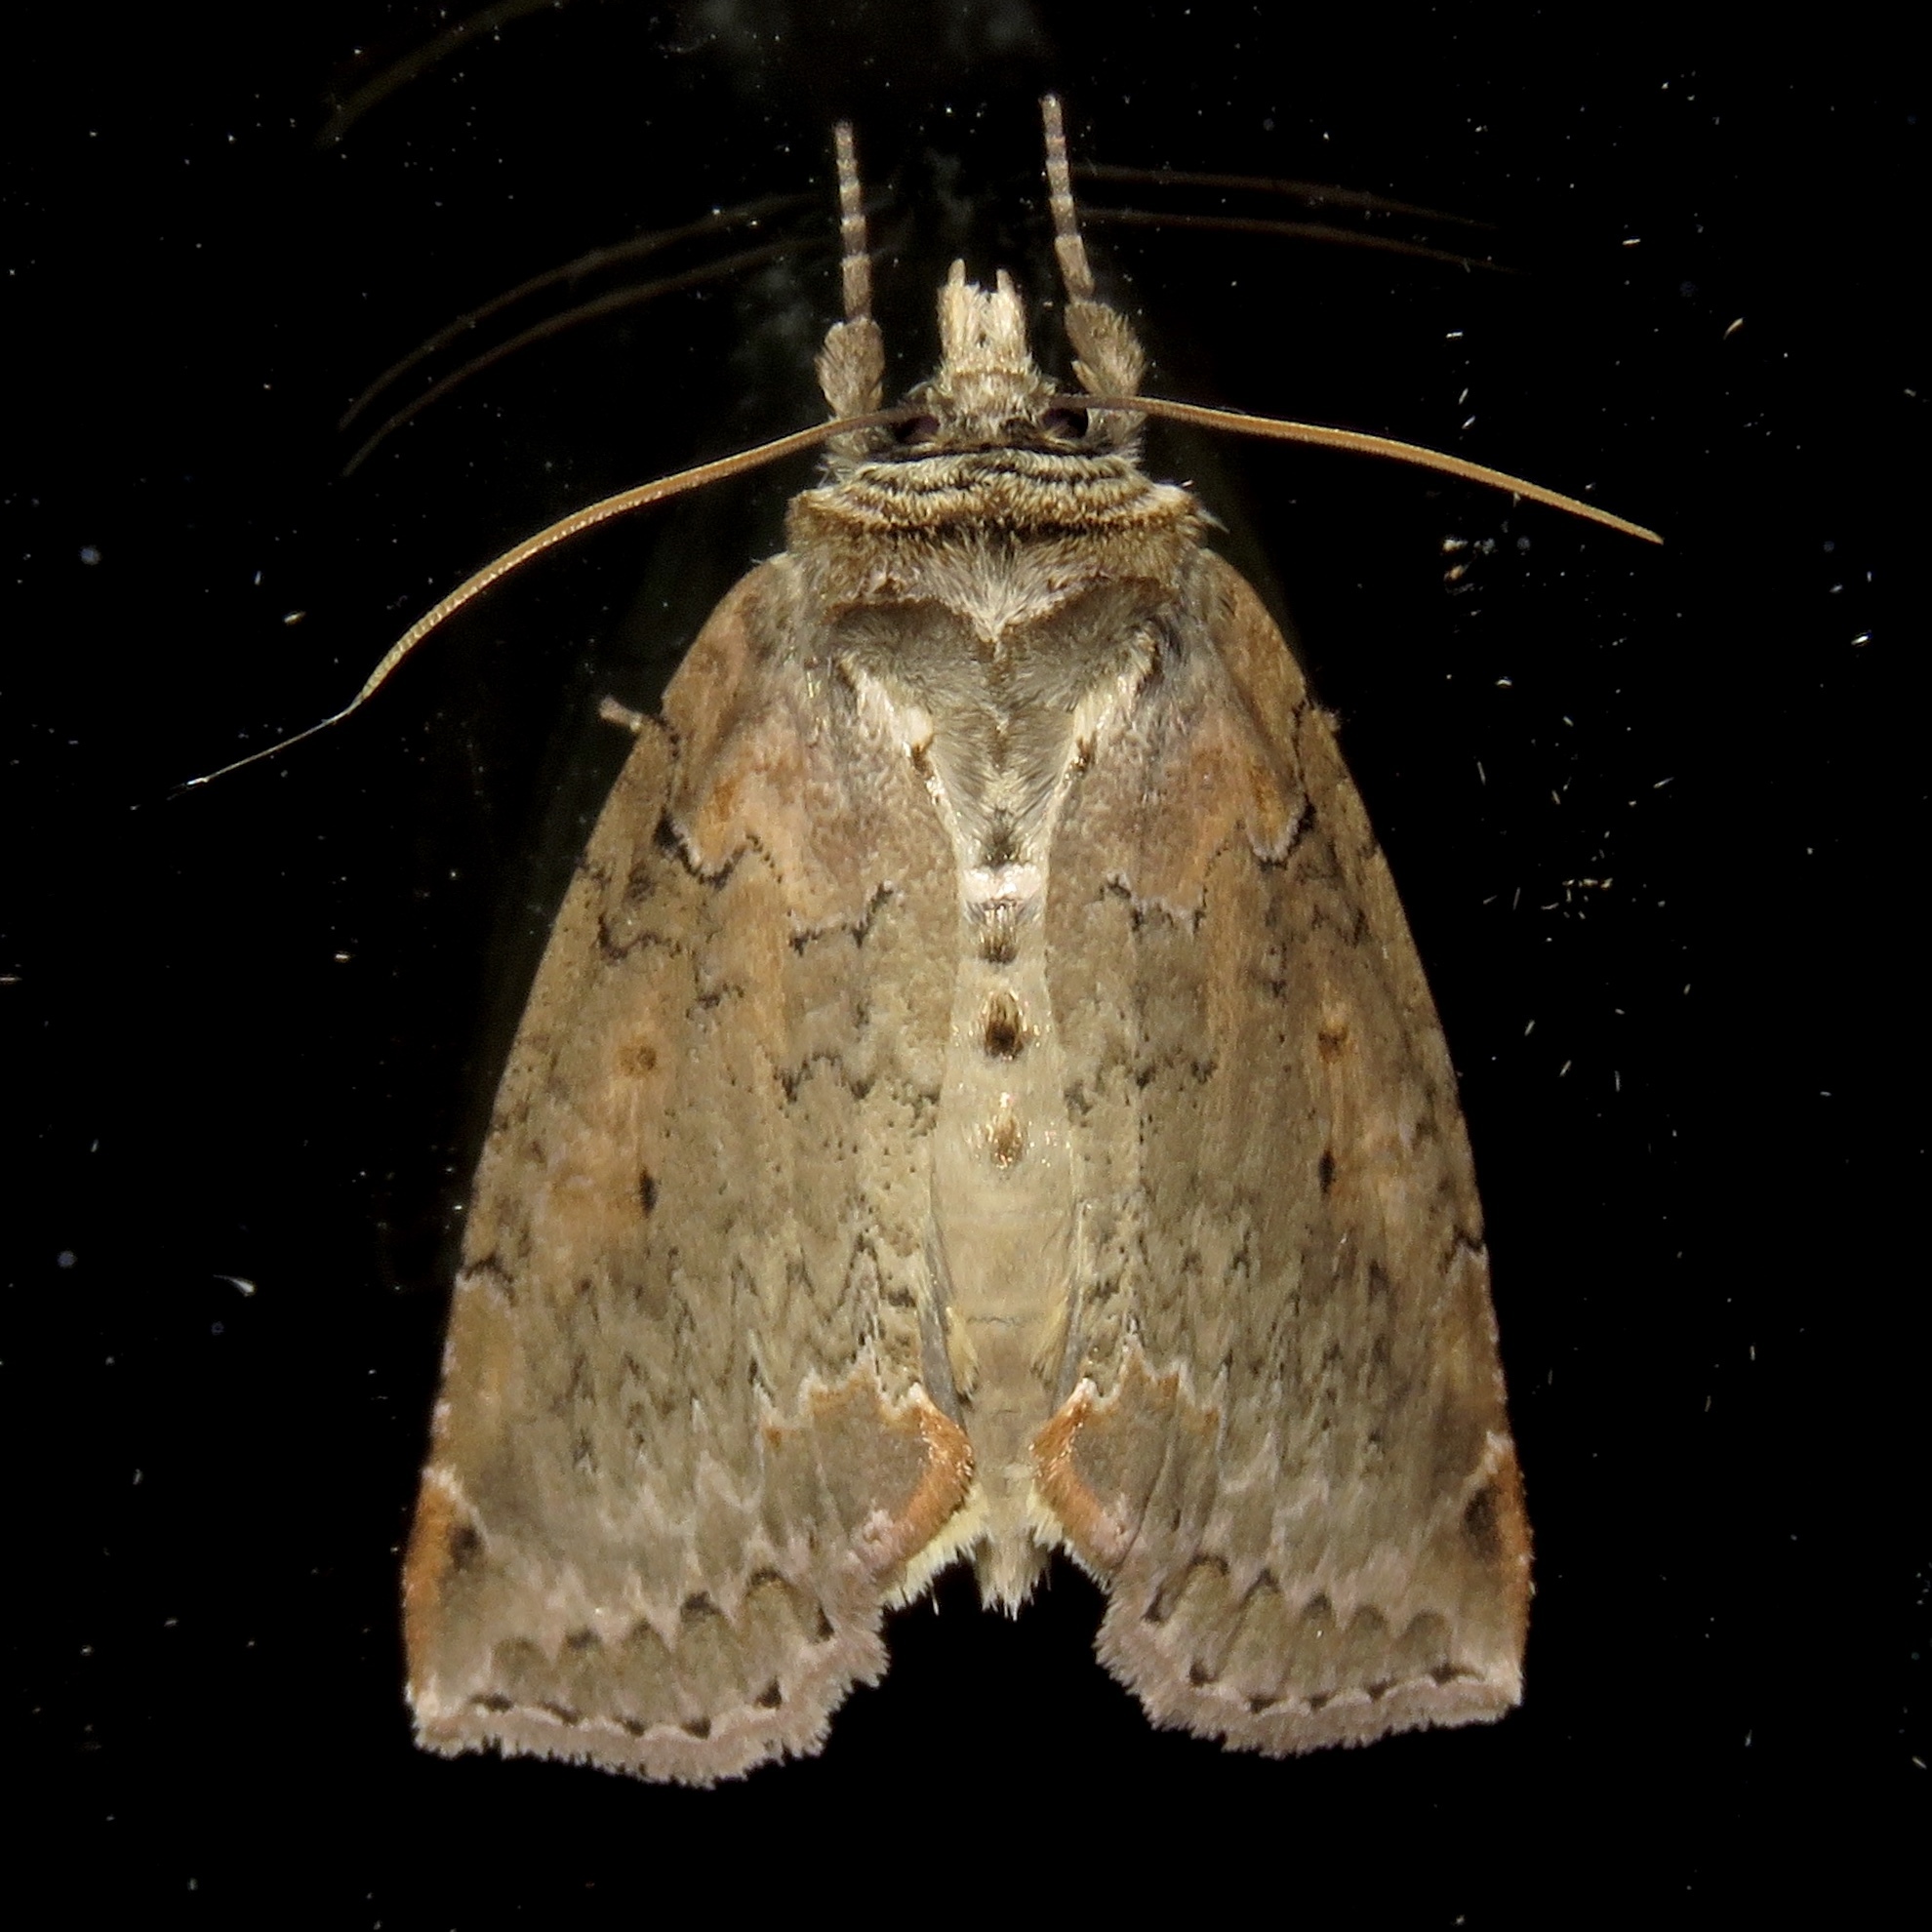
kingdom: Animalia
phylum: Arthropoda
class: Insecta
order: Lepidoptera
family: Drepanidae
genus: Pseudothyatira
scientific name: Pseudothyatira cymatophoroides
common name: Tufted thyatirid moth
